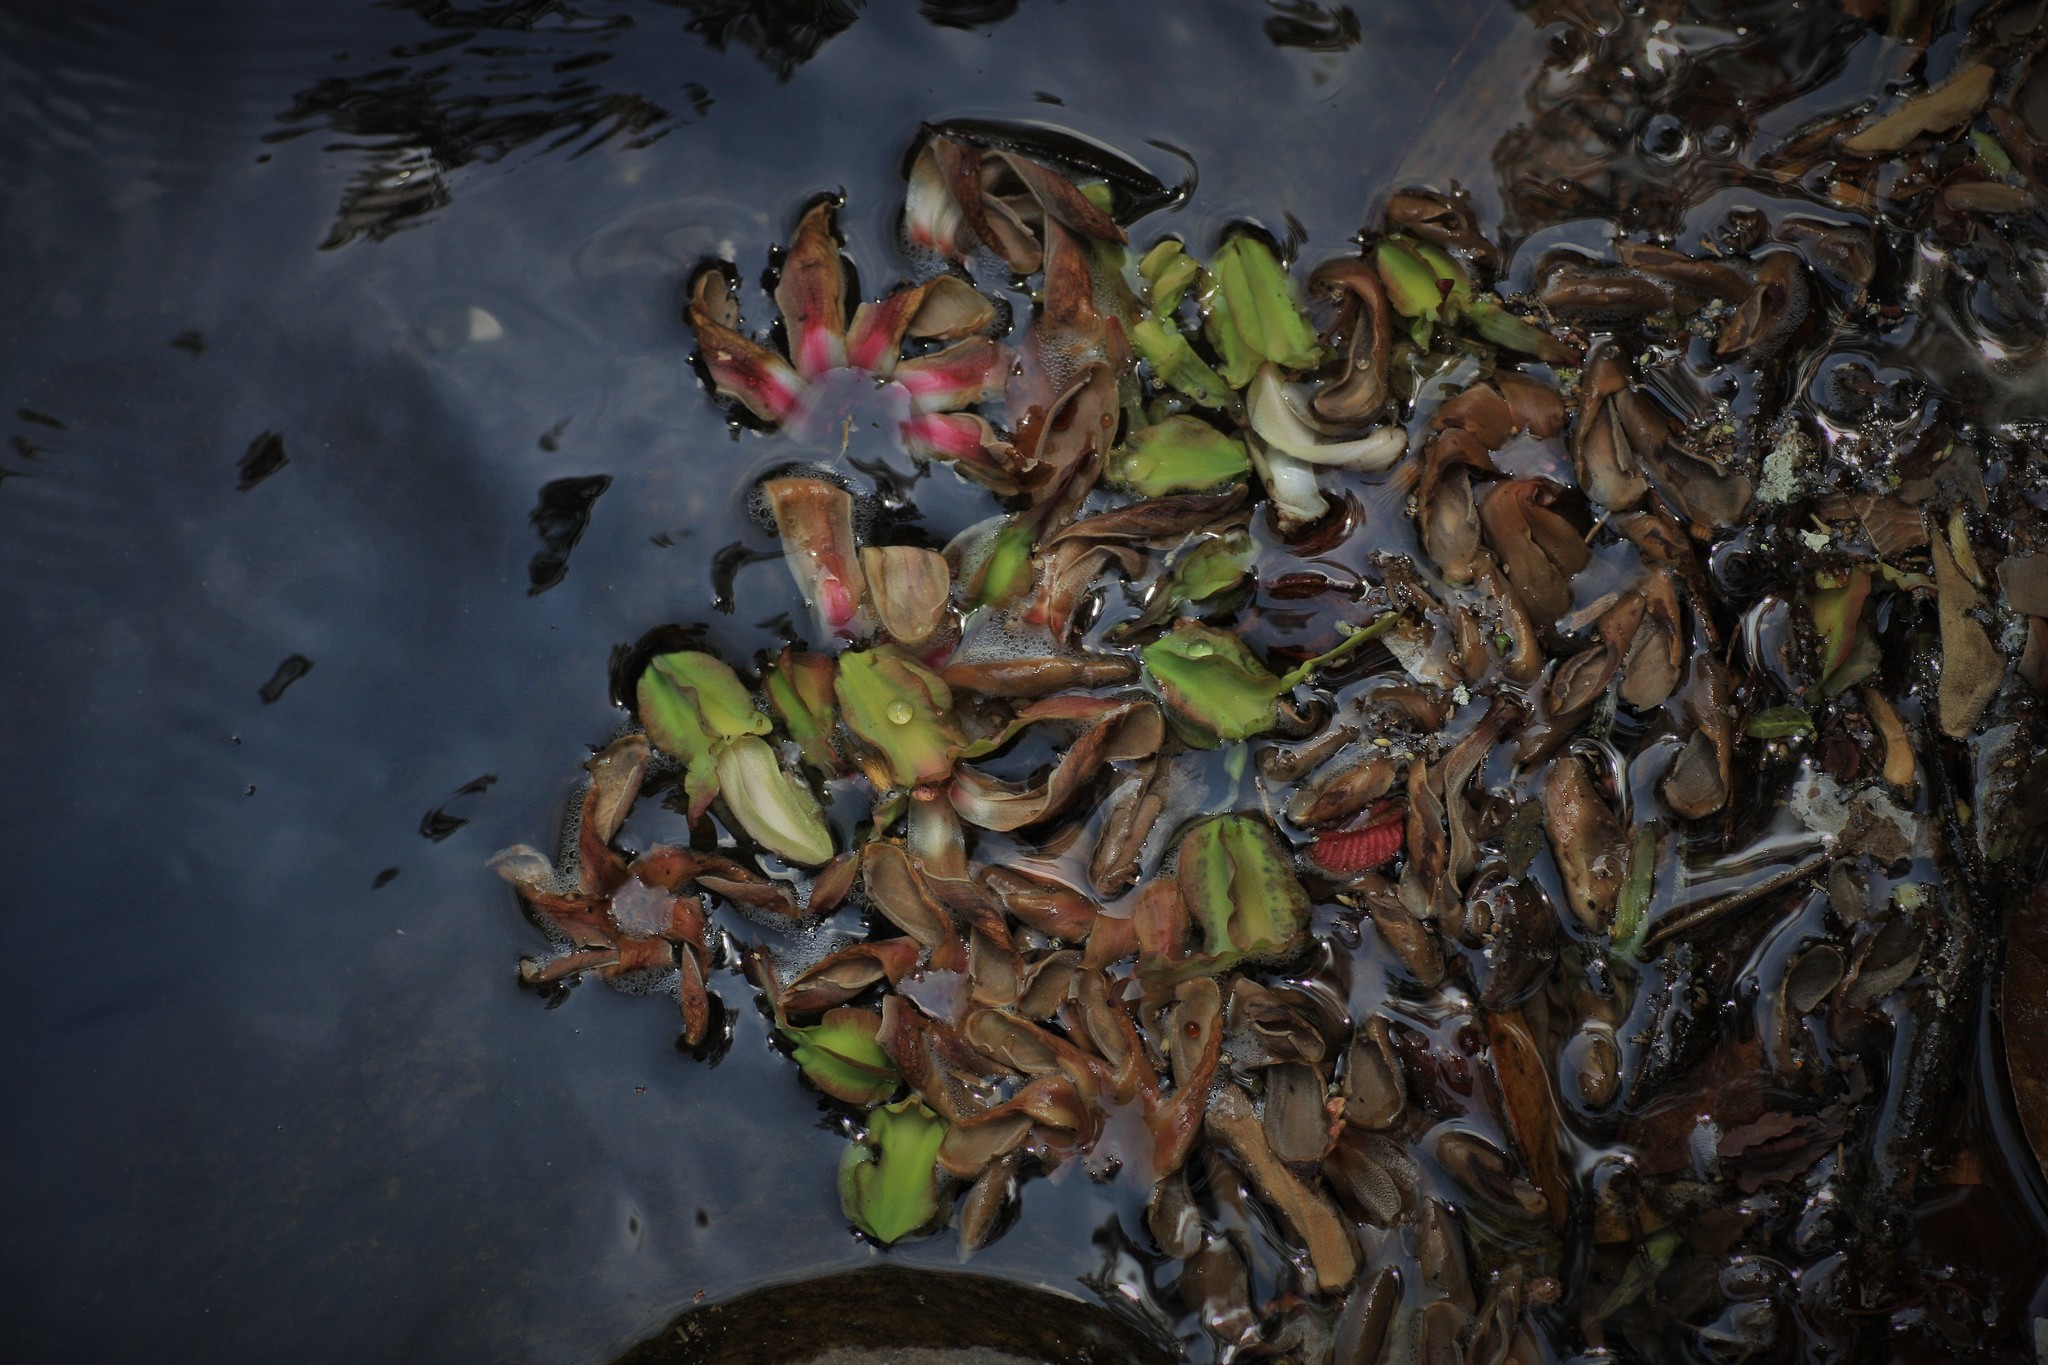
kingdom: Plantae
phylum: Tracheophyta
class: Magnoliopsida
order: Malvales
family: Dipterocarpaceae
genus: Dipterocarpus
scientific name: Dipterocarpus bourdillonii
